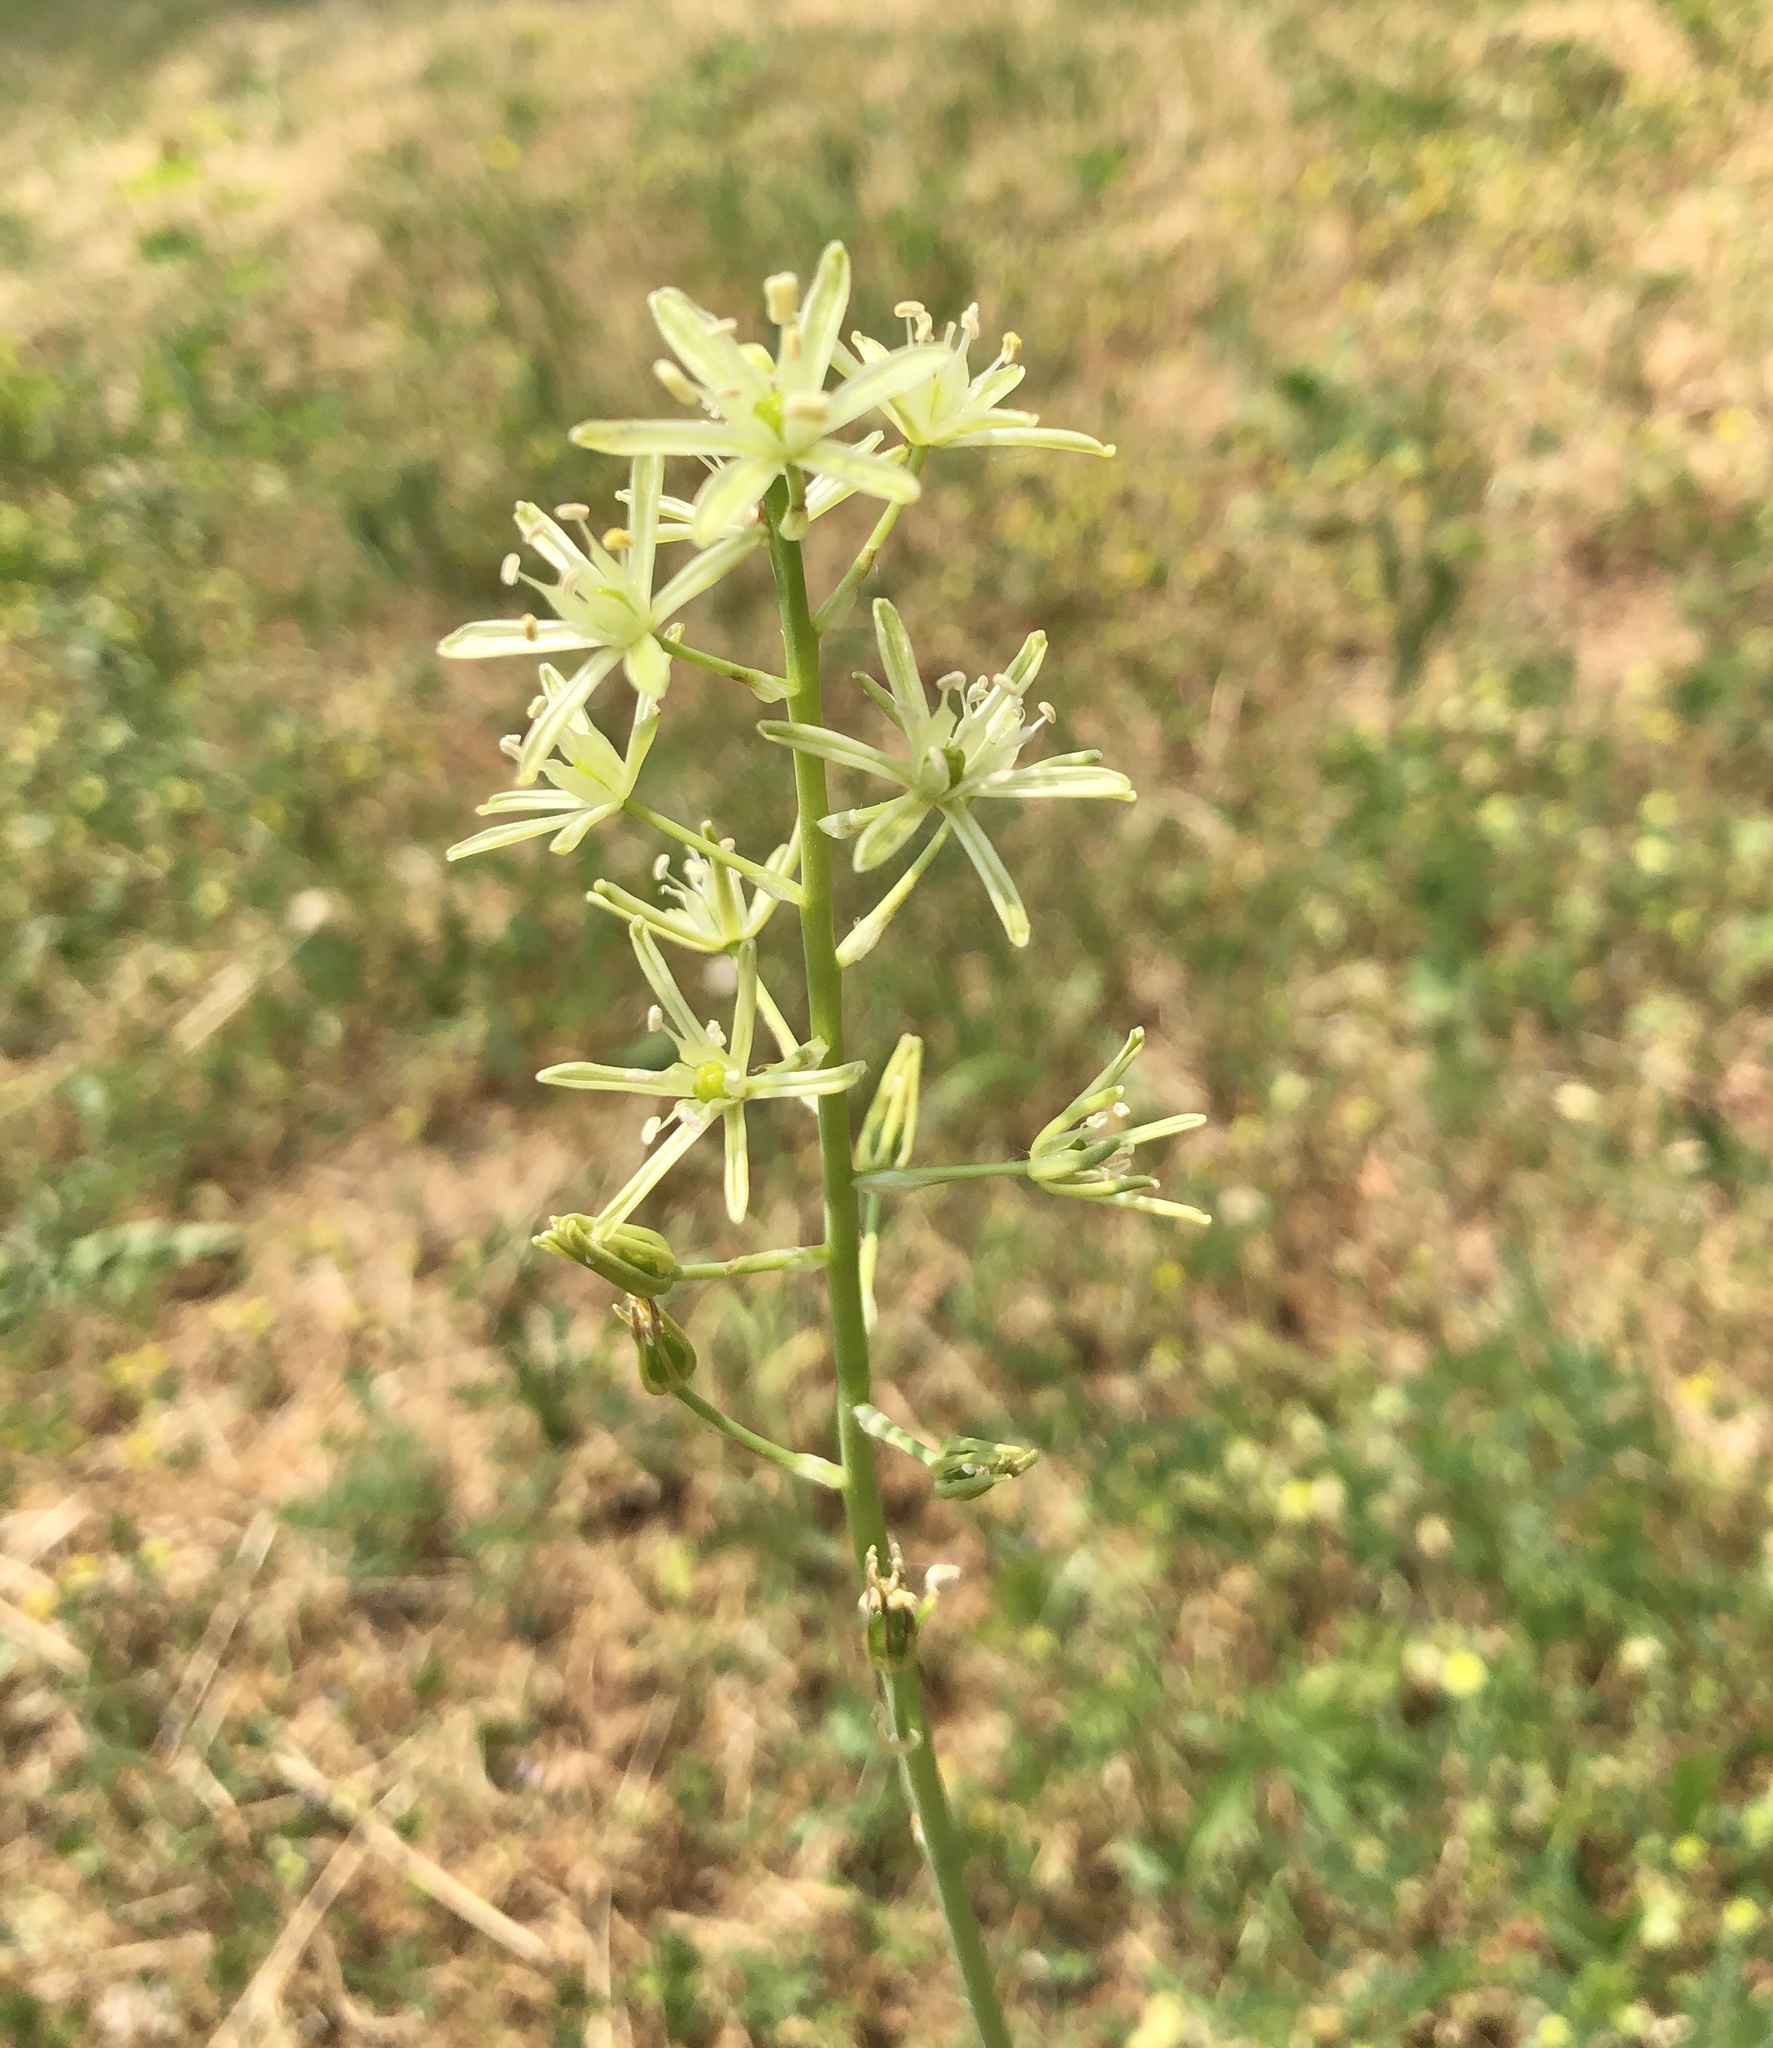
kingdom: Plantae
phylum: Tracheophyta
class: Liliopsida
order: Asparagales
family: Asparagaceae
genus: Ornithogalum
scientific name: Ornithogalum pyrenaicum
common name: Spiked star-of-bethlehem
